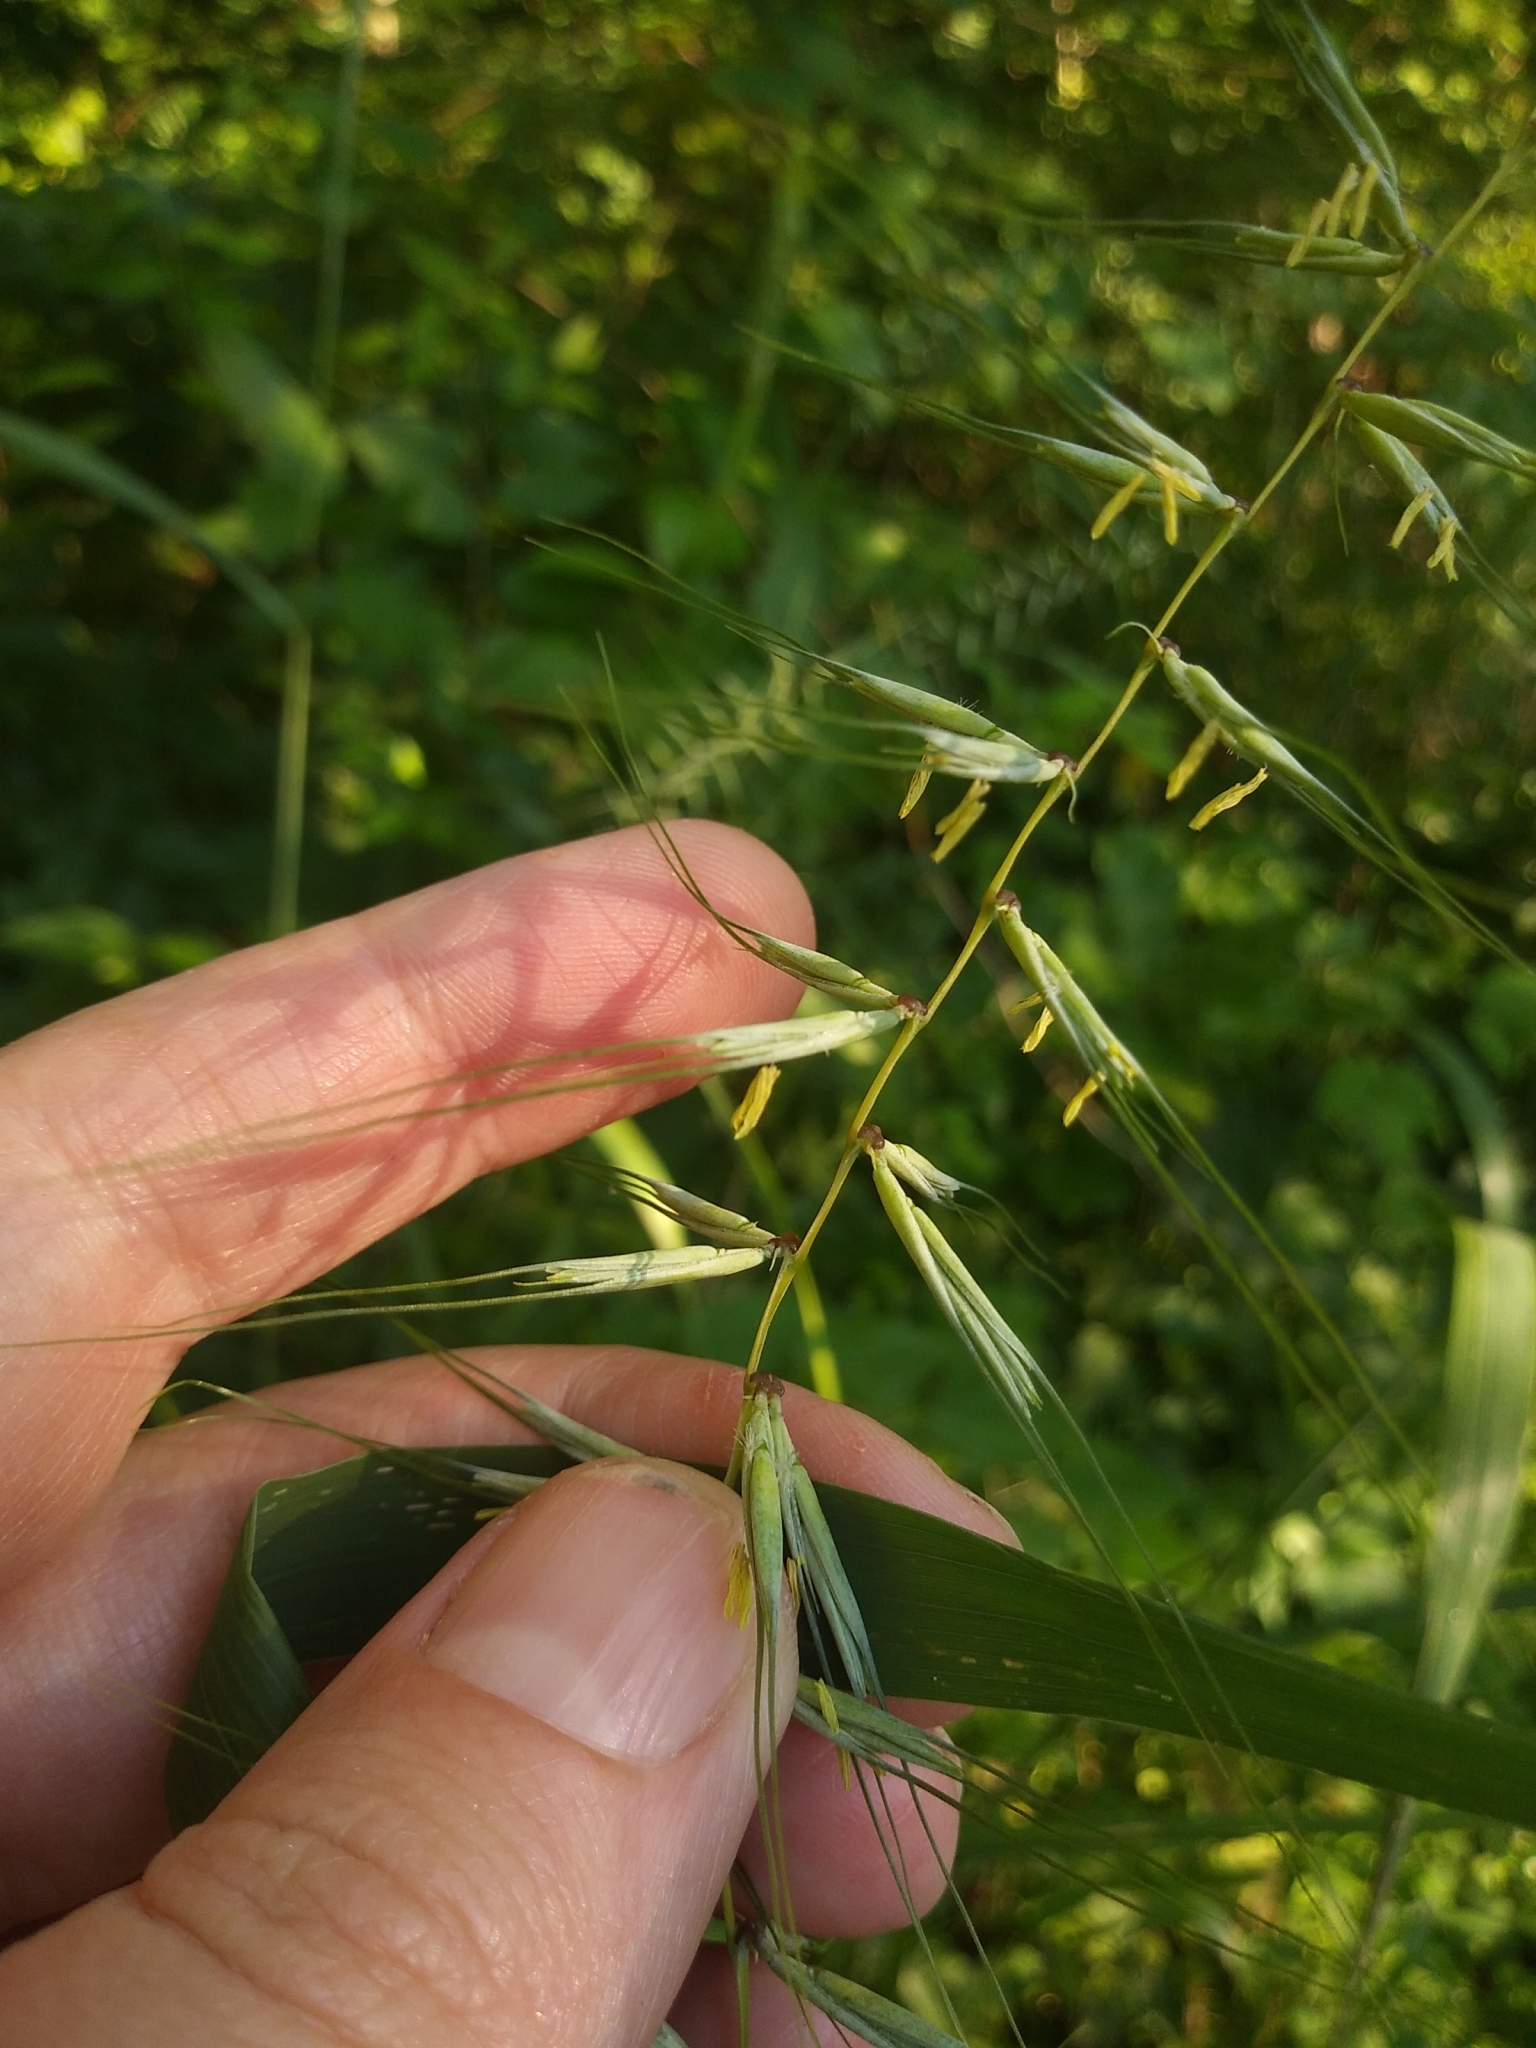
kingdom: Plantae
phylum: Tracheophyta
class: Liliopsida
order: Poales
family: Poaceae
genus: Elymus
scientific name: Elymus hystrix
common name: Bottlebrush grass
